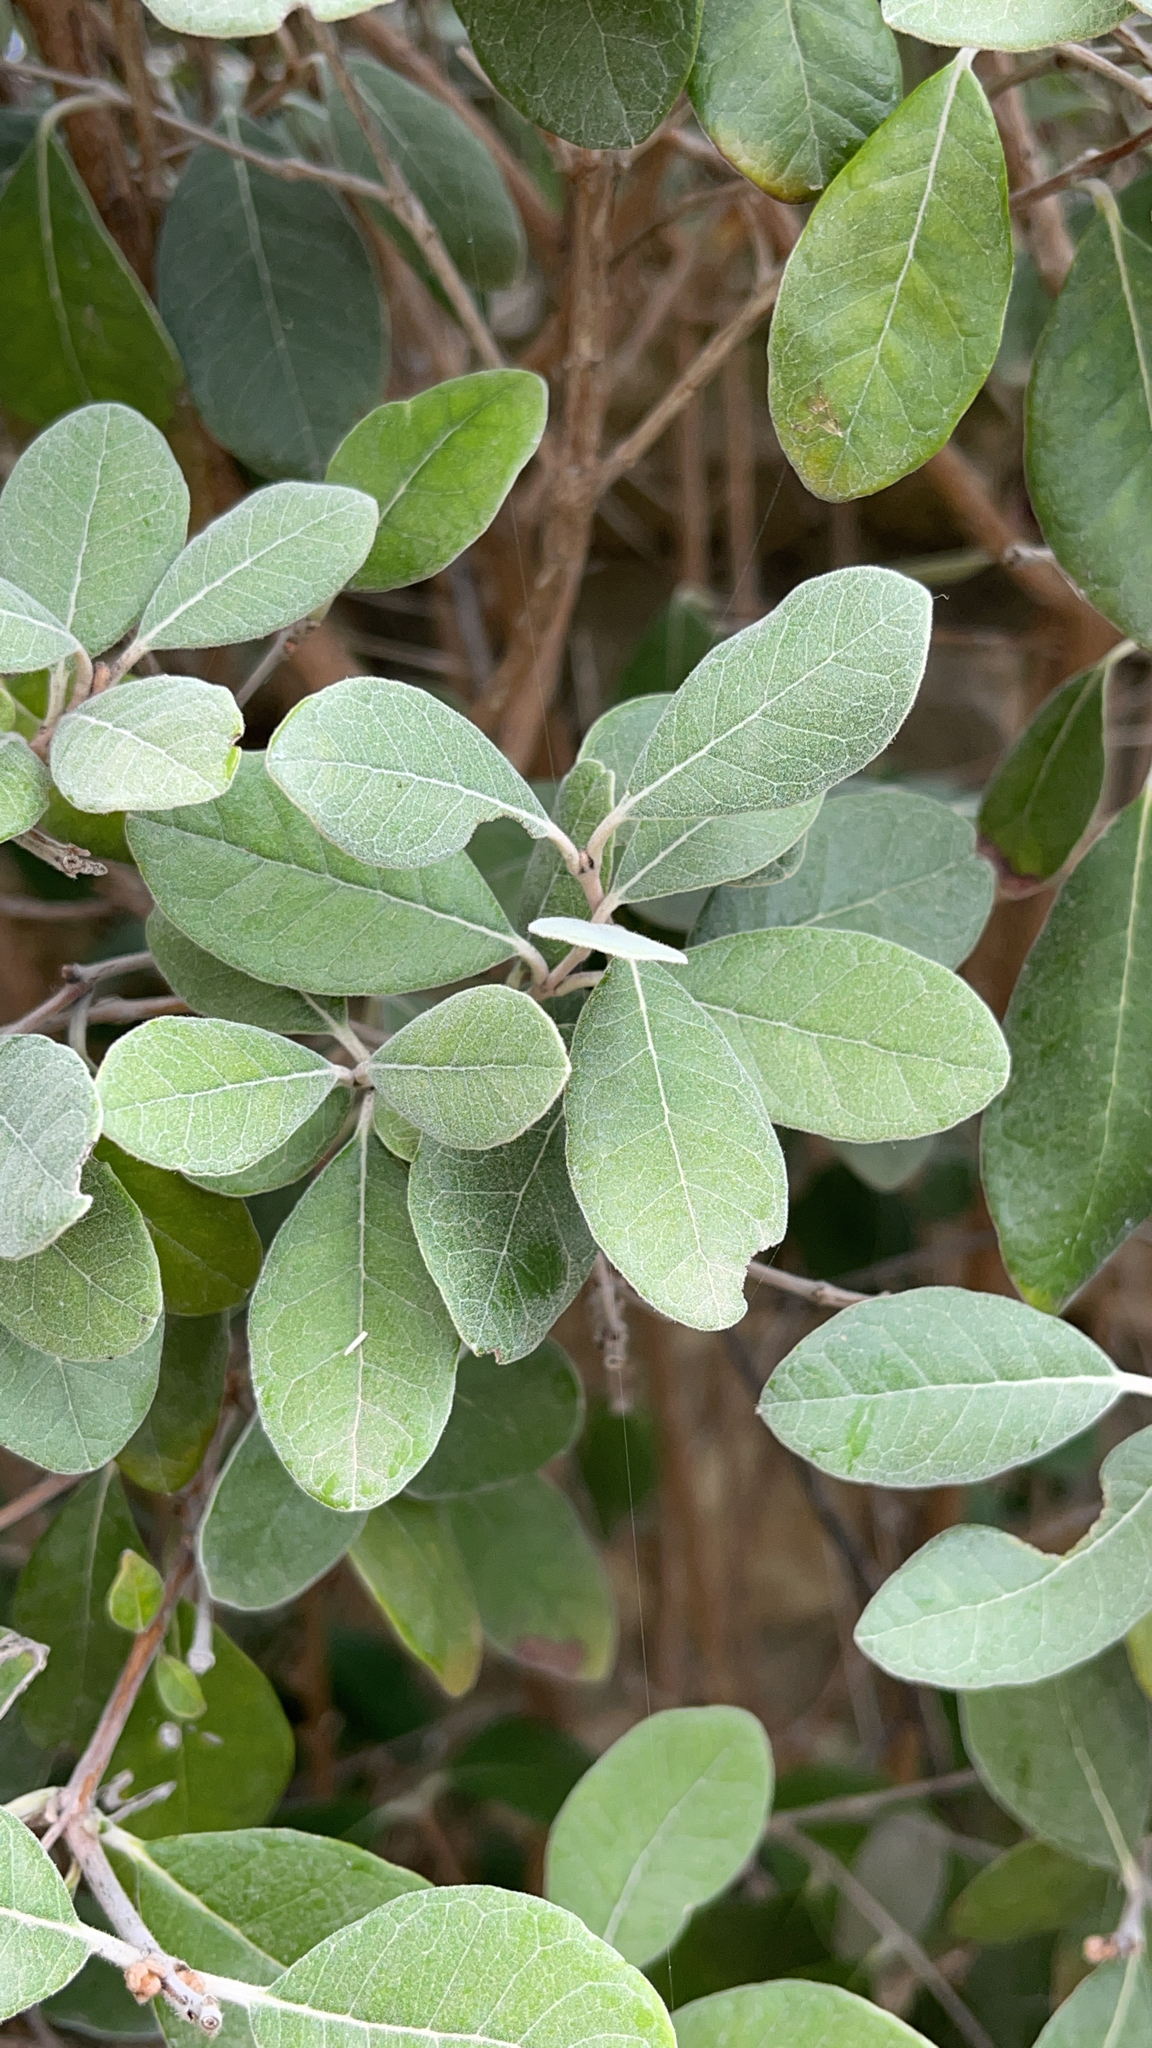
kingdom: Plantae
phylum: Tracheophyta
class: Magnoliopsida
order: Myrtales
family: Myrtaceae
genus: Feijoa
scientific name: Feijoa sellowiana
